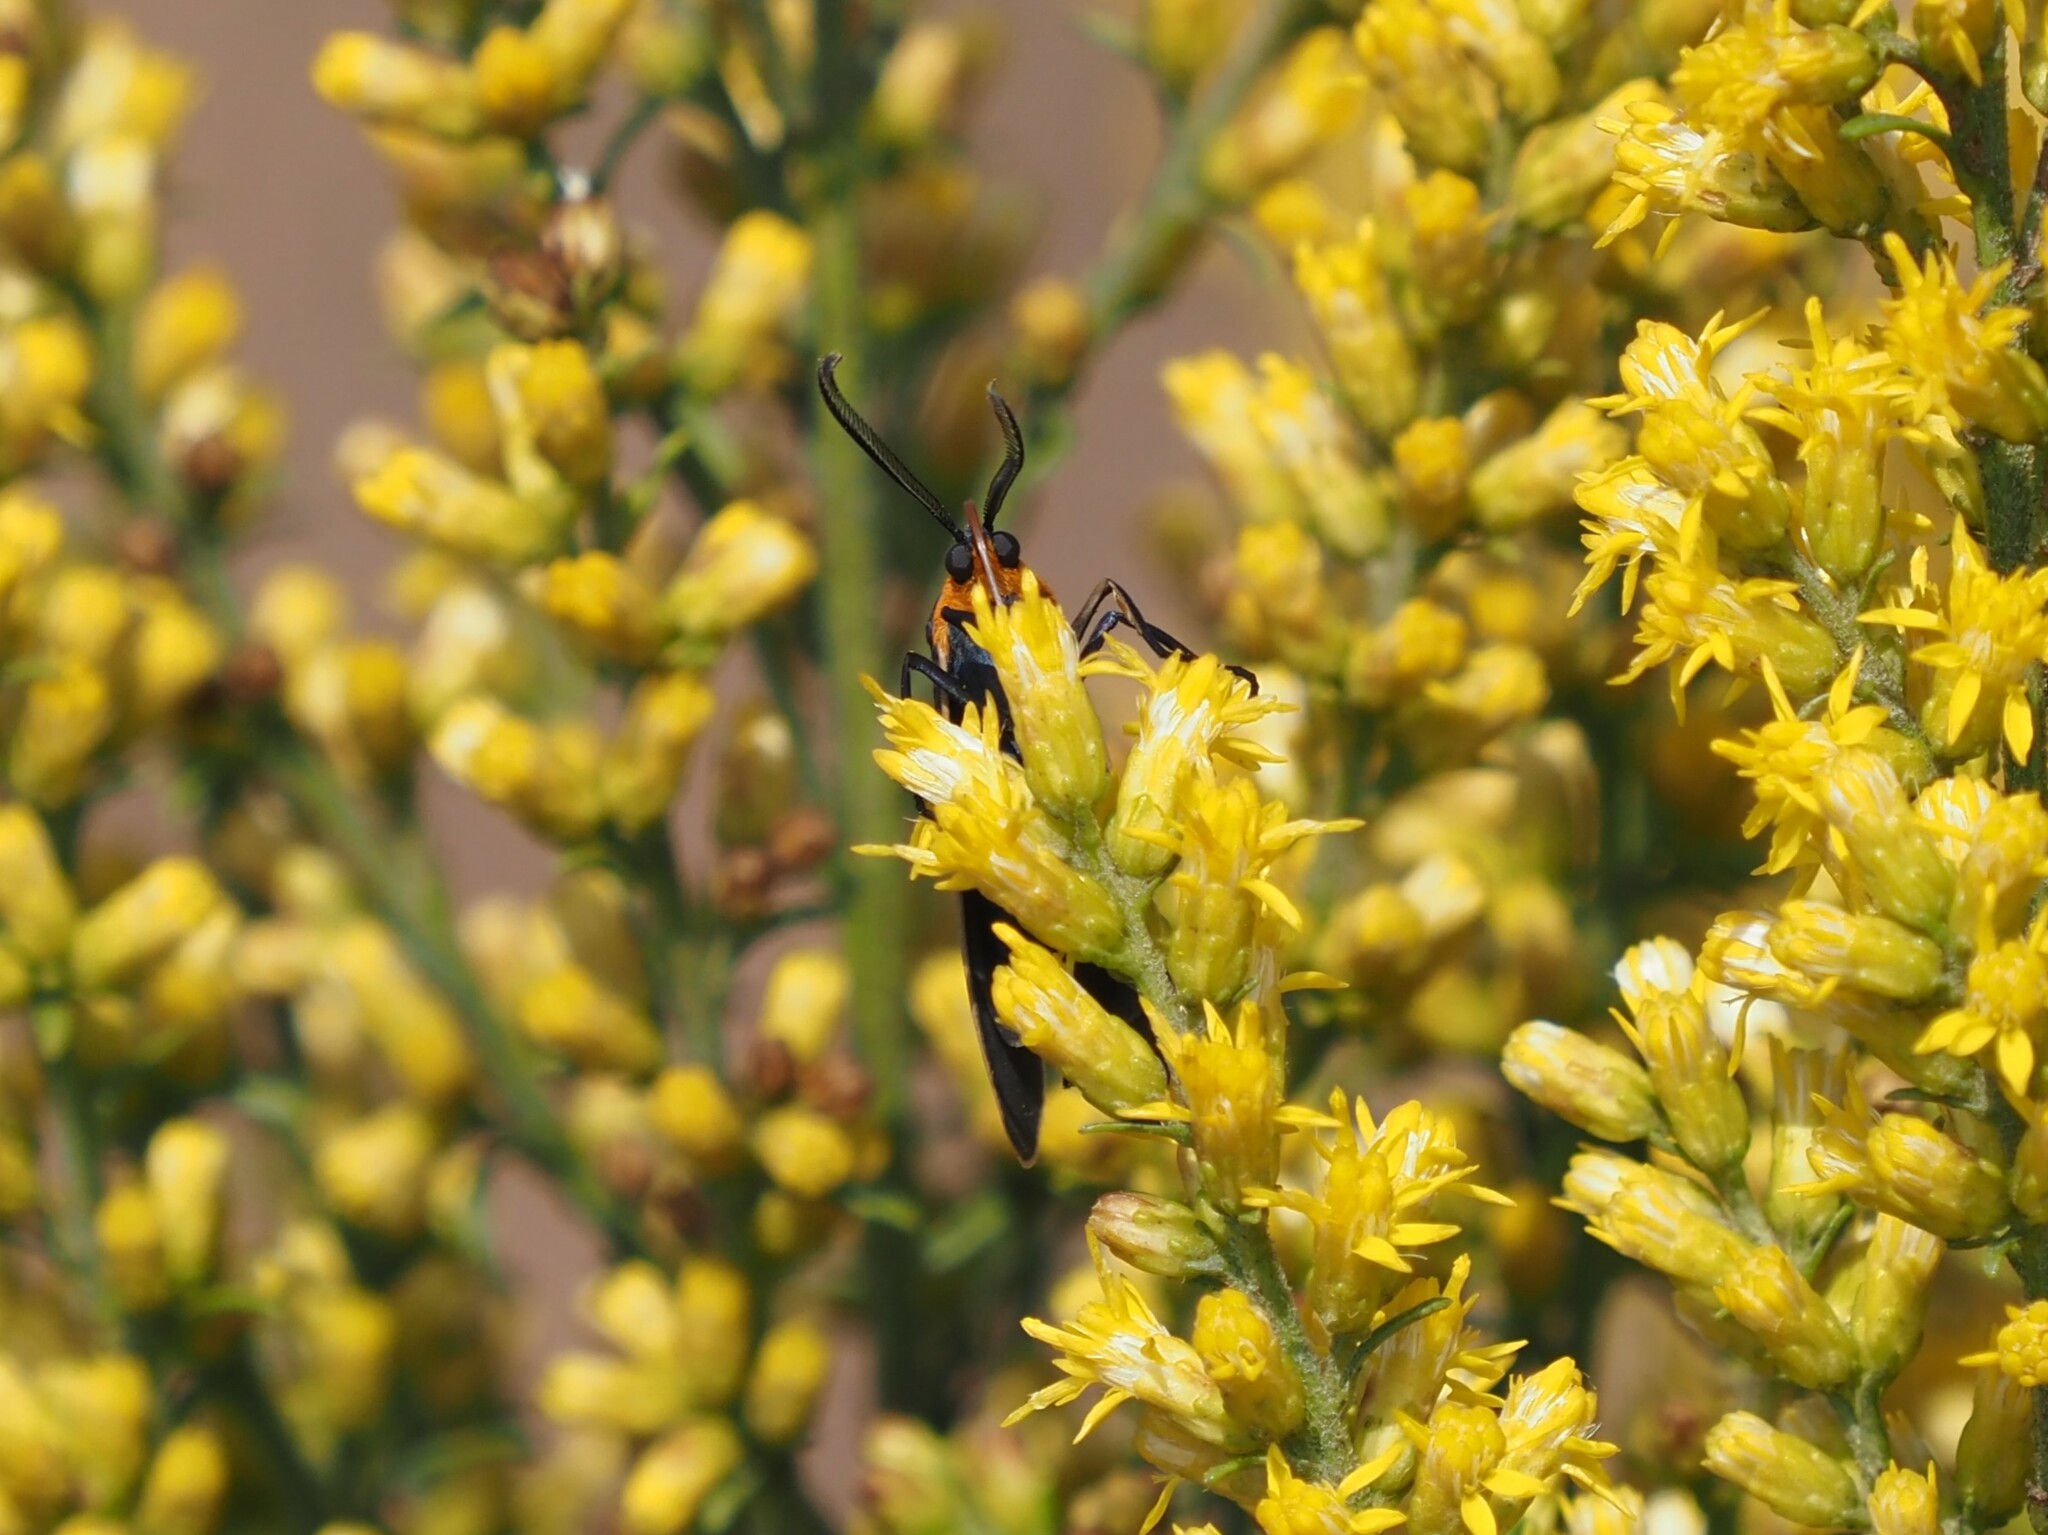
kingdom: Animalia
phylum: Arthropoda
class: Insecta
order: Lepidoptera
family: Erebidae
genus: Cisseps
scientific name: Cisseps fulvicollis
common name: Yellow-collared scape moth
